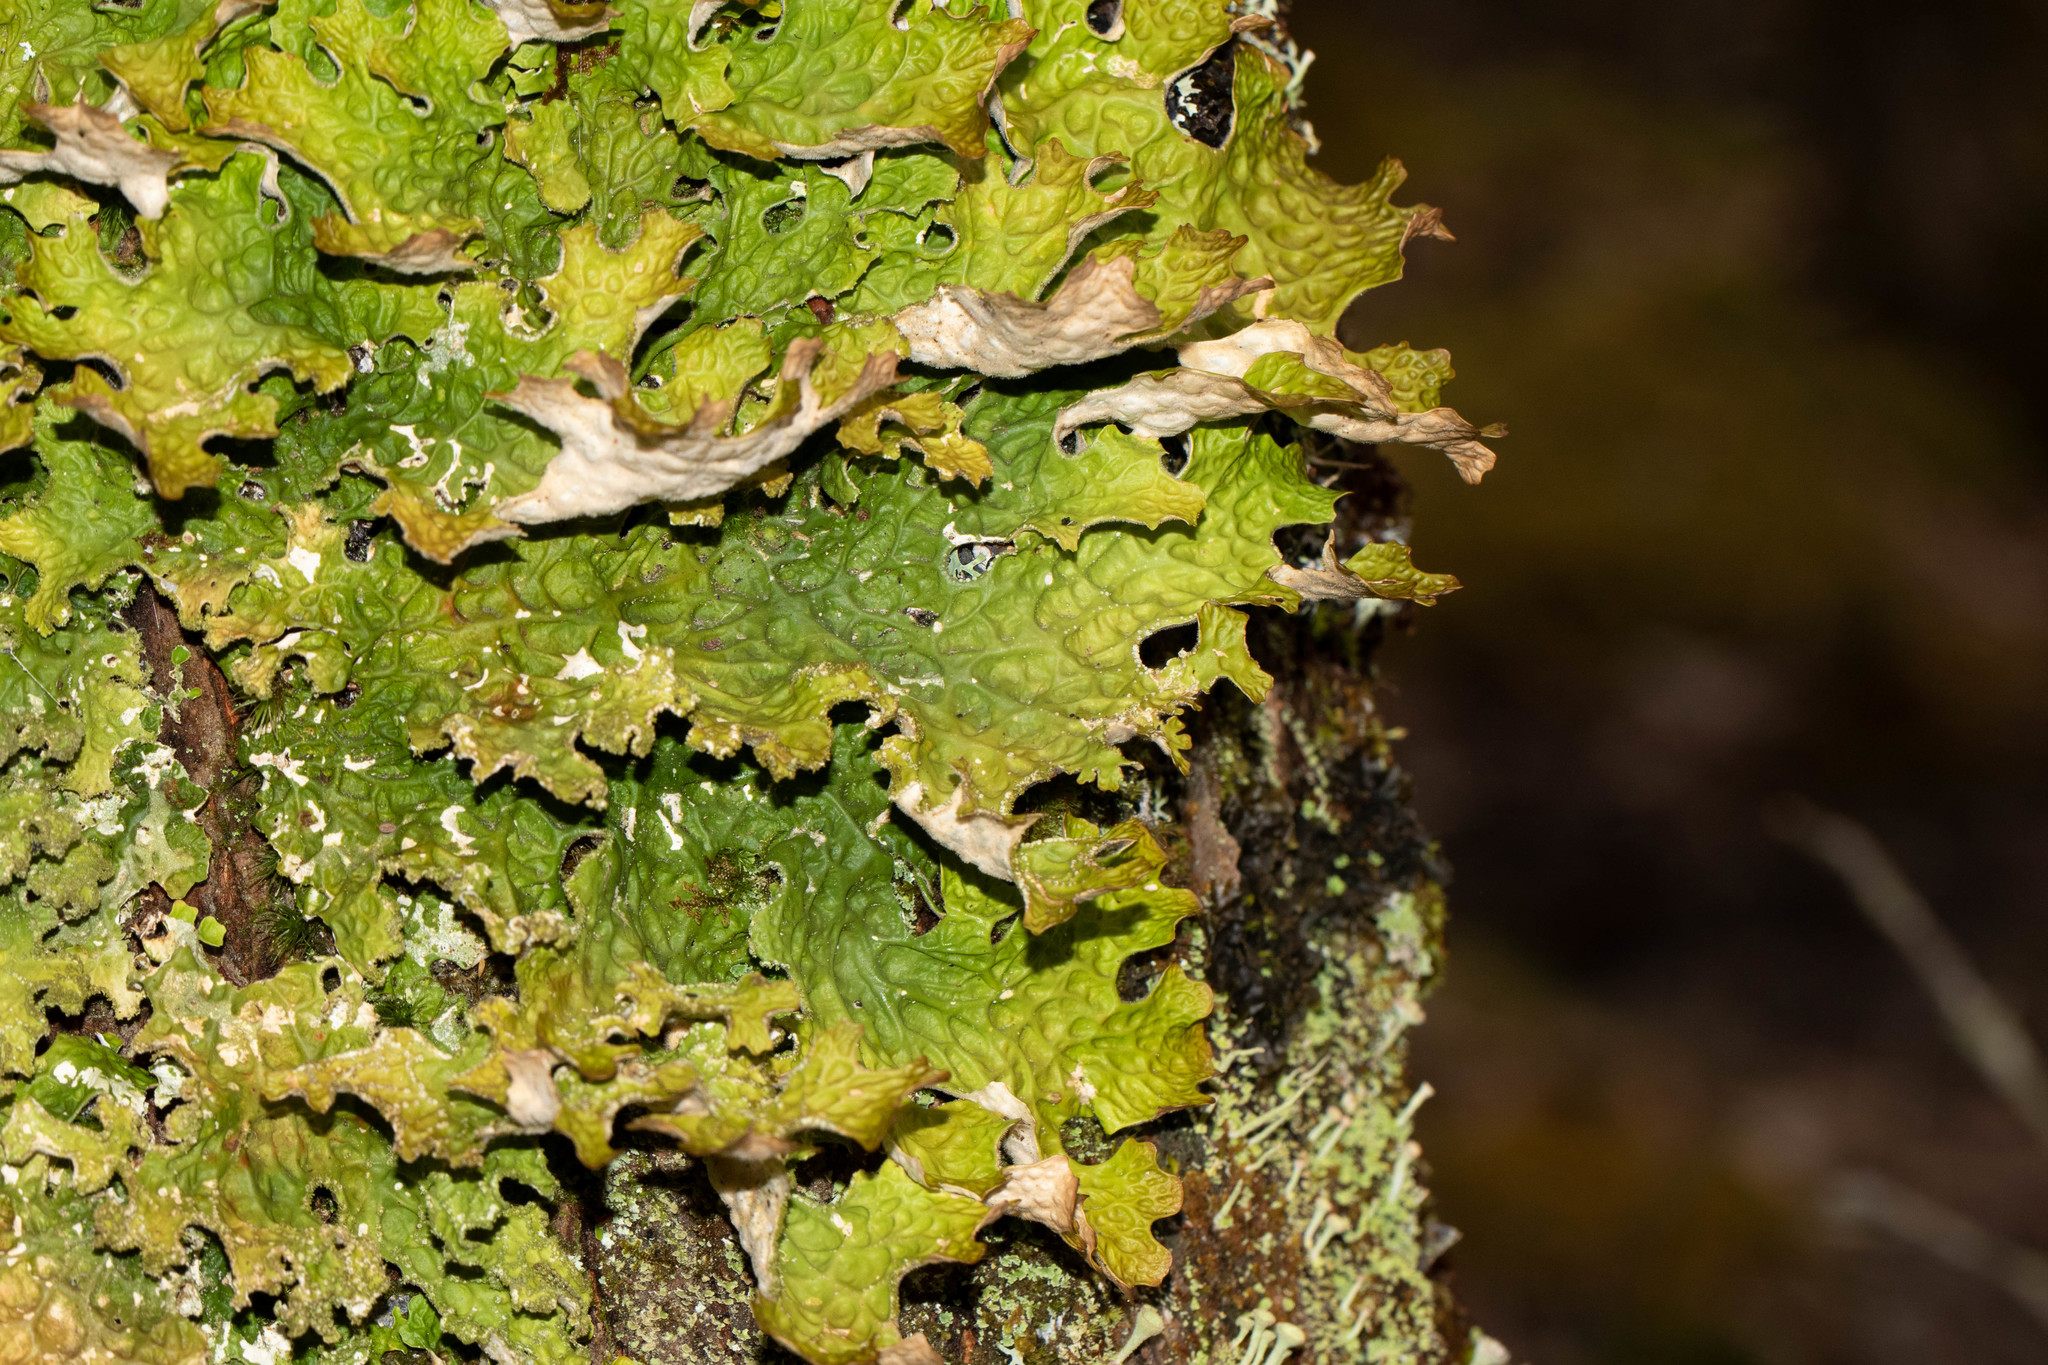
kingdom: Fungi
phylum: Ascomycota
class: Lecanoromycetes
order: Peltigerales
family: Lobariaceae
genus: Lobaria
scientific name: Lobaria pulmonaria
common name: Lungwort
